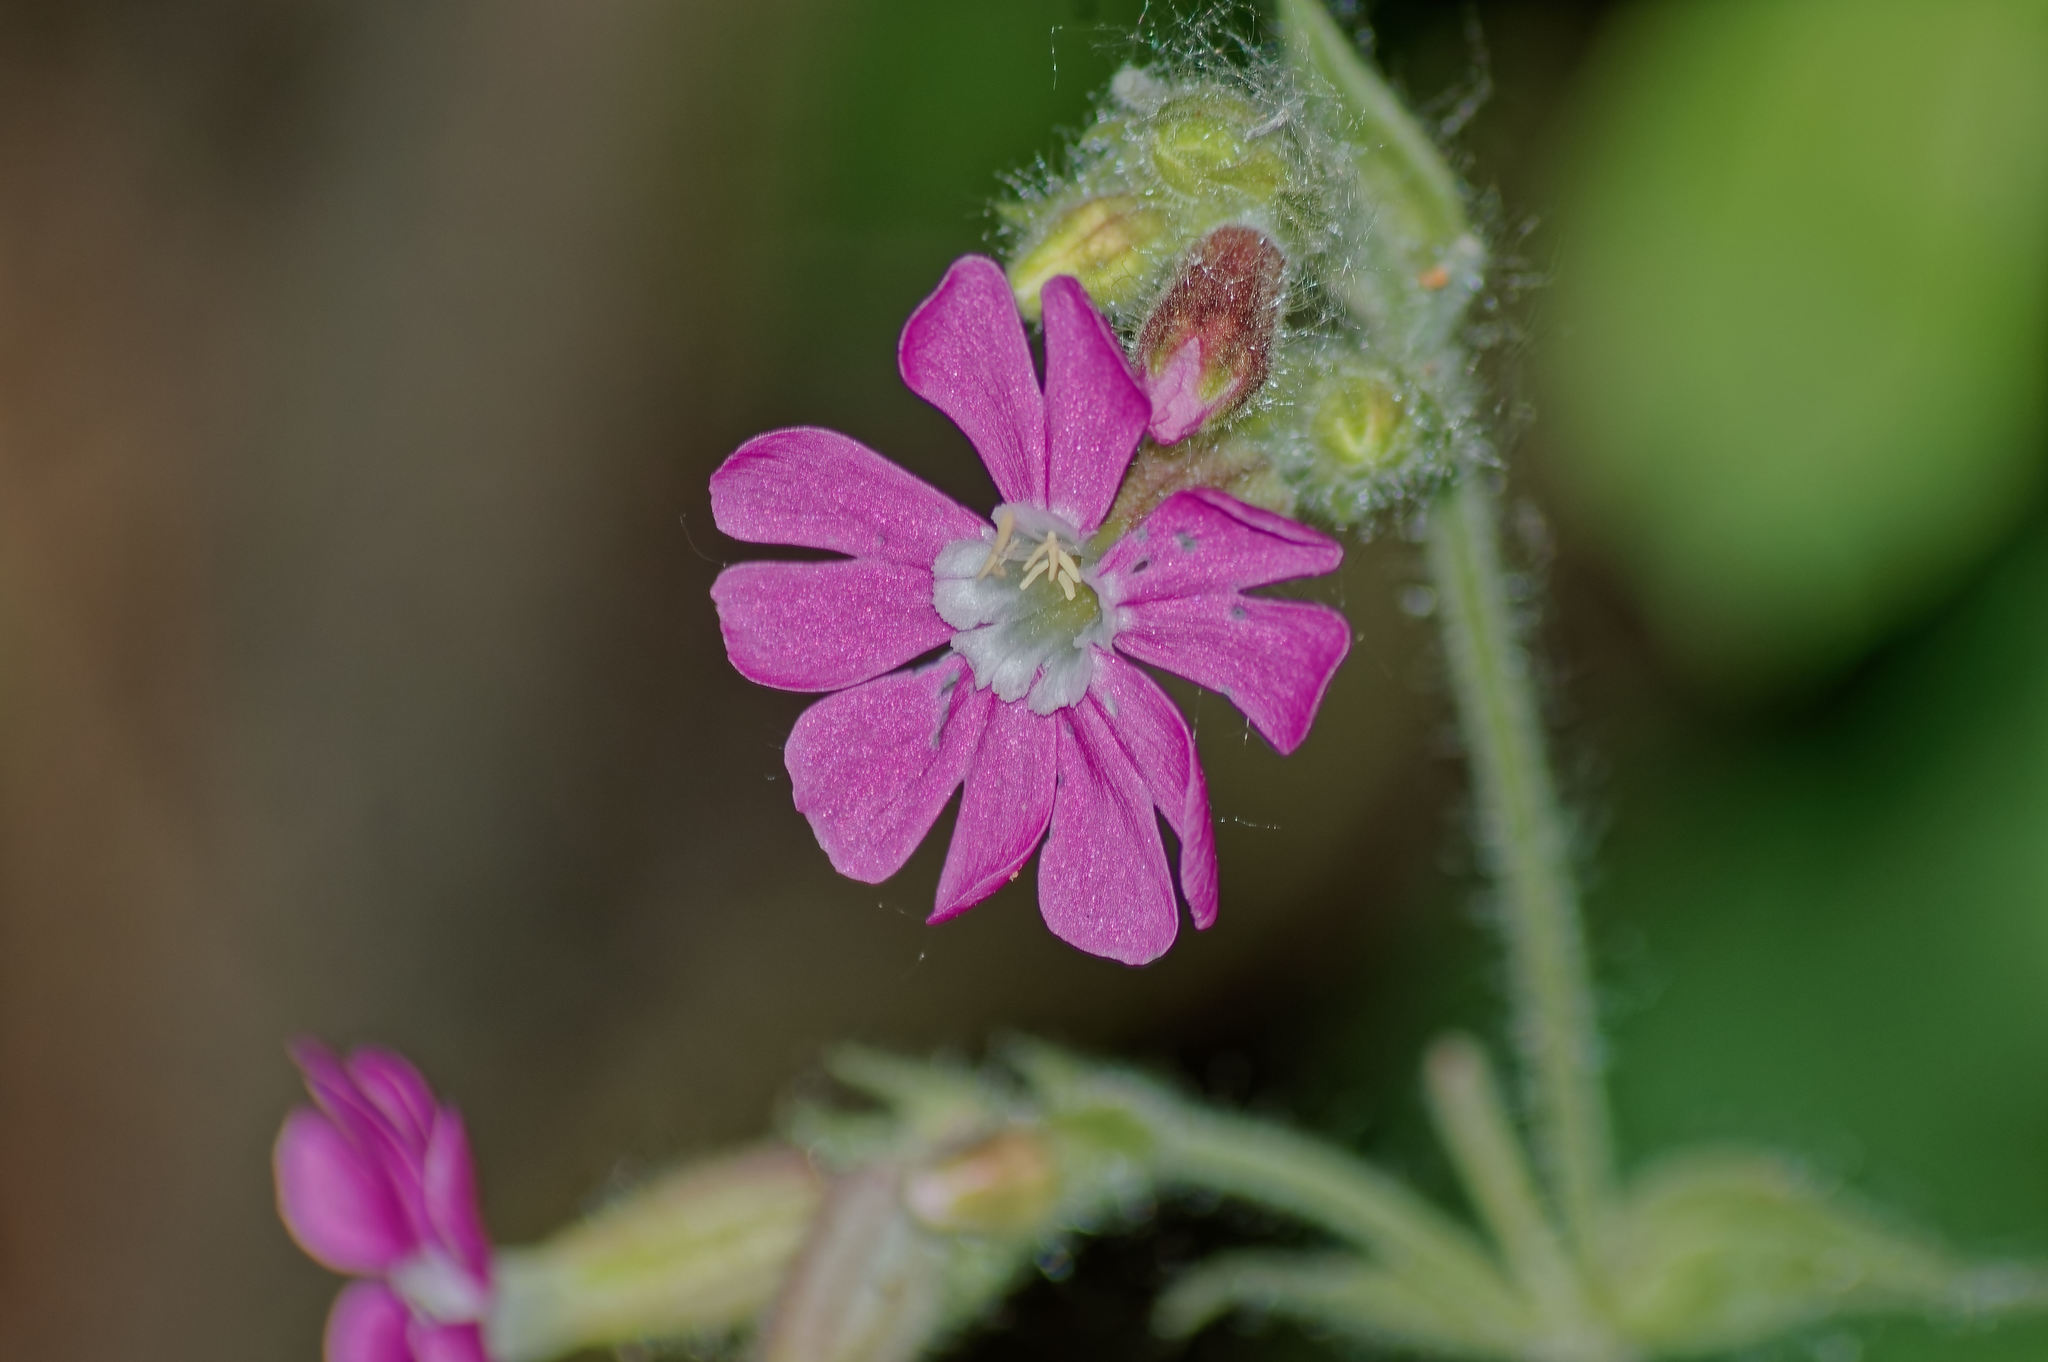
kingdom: Plantae
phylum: Tracheophyta
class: Magnoliopsida
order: Caryophyllales
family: Caryophyllaceae
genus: Silene
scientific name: Silene dioica
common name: Red campion
